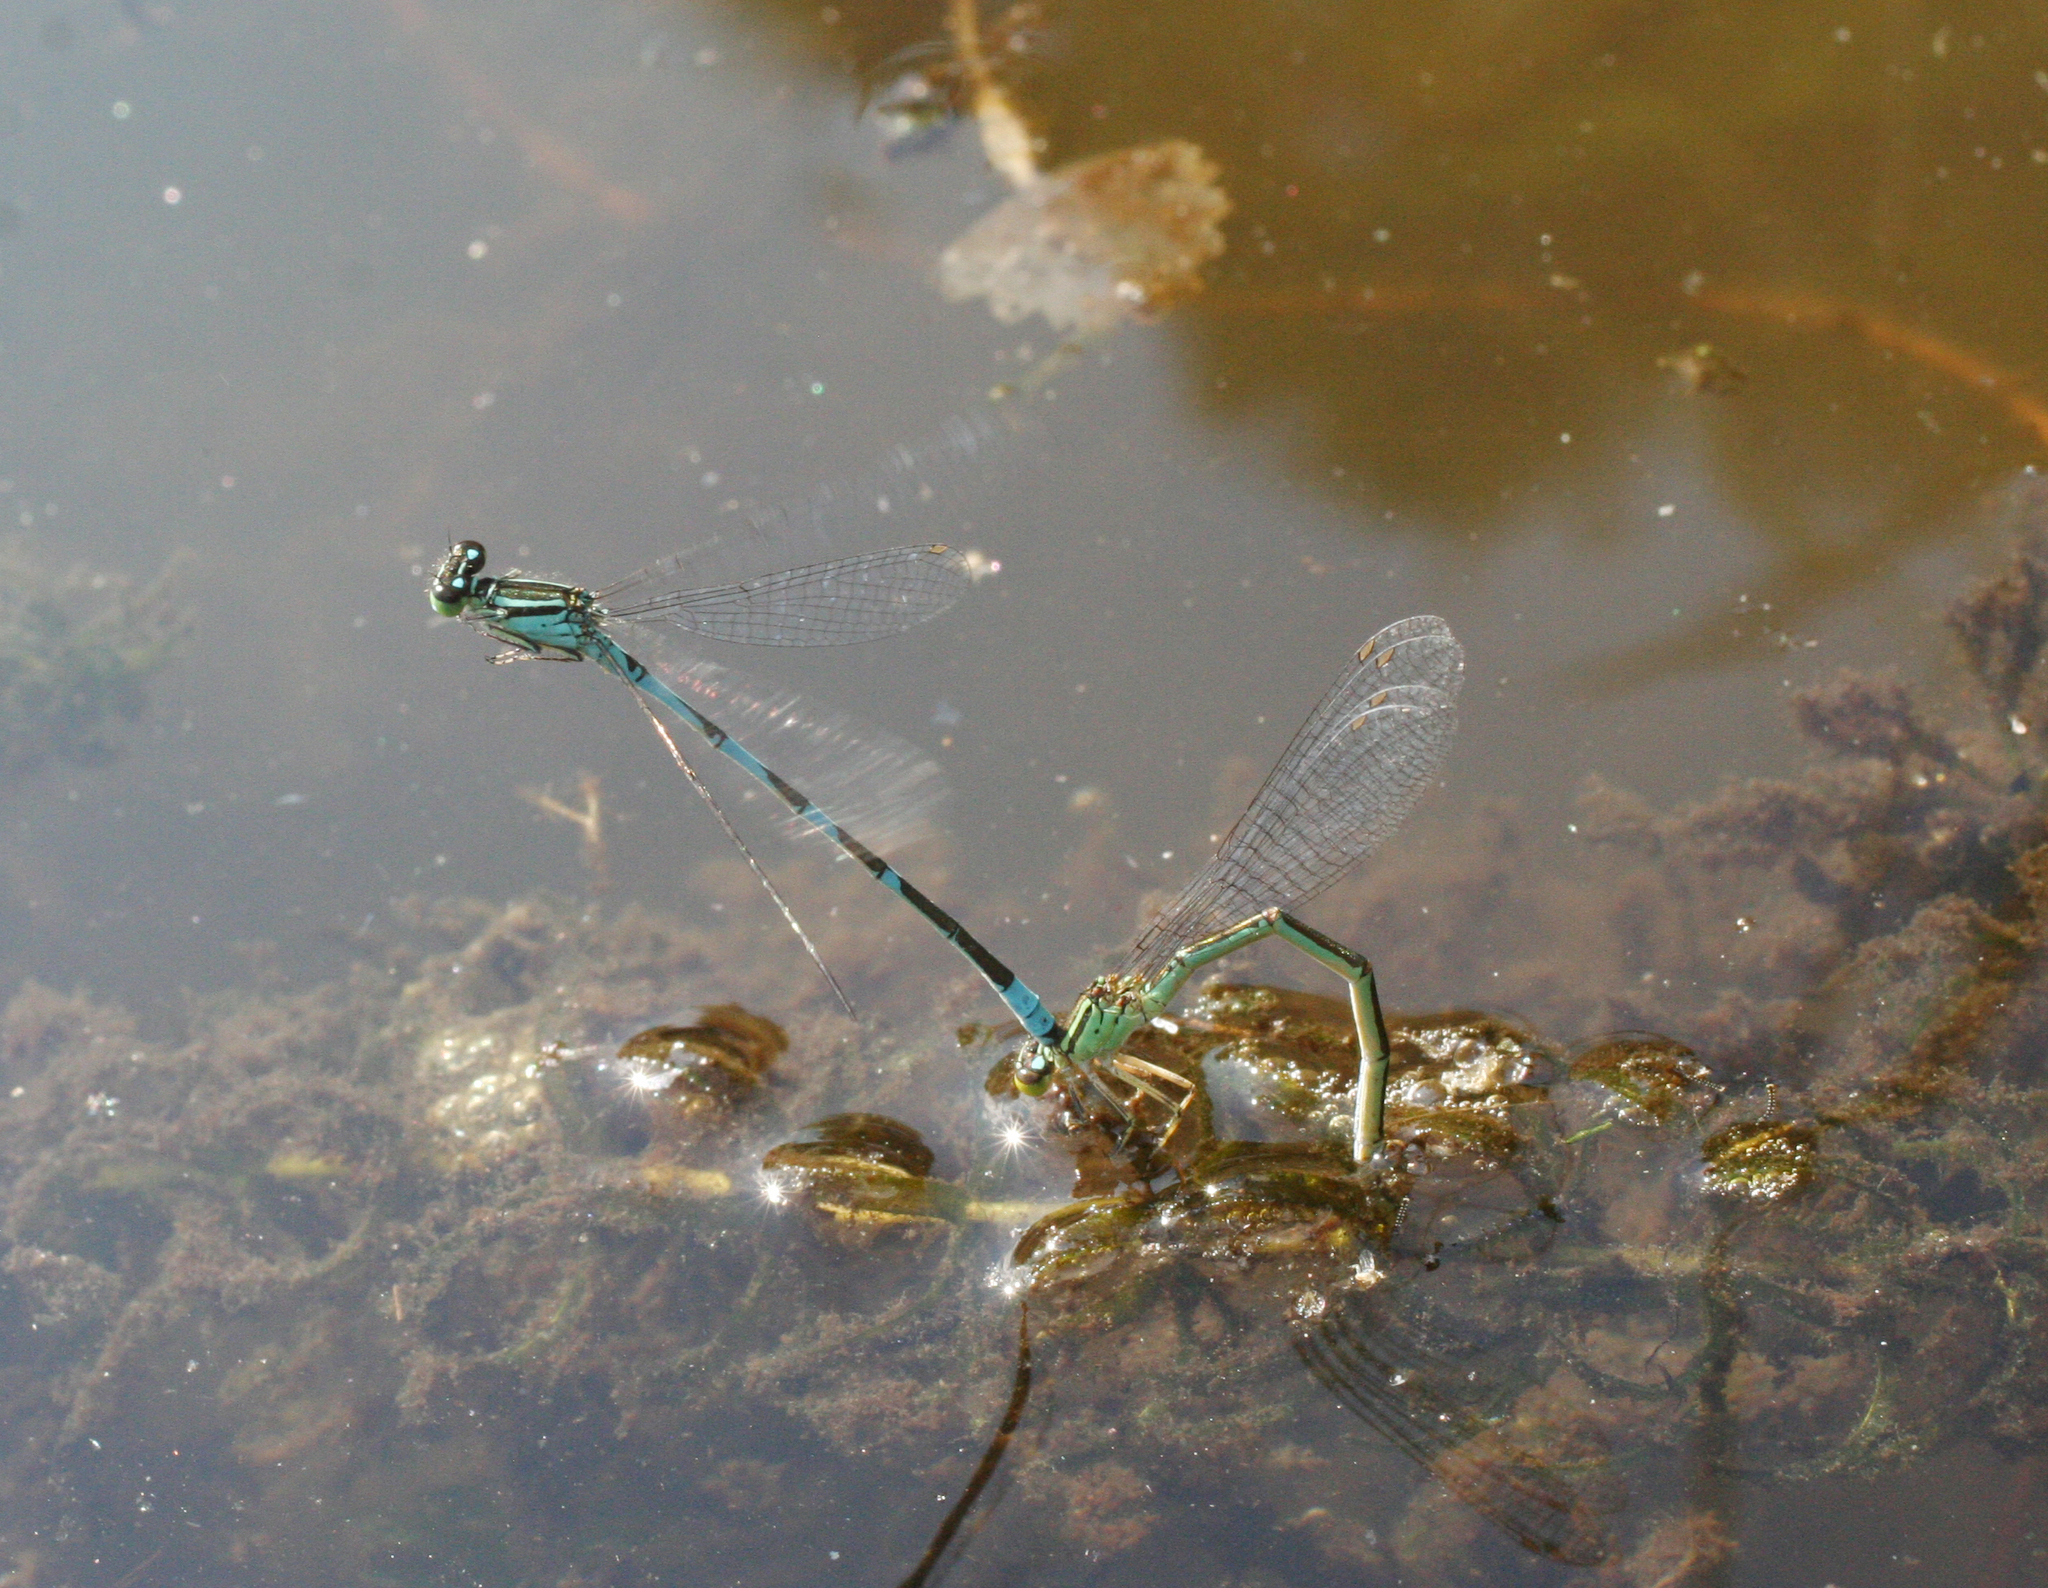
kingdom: Animalia
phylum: Arthropoda
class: Insecta
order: Odonata
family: Coenagrionidae
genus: Coenagrion
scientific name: Coenagrion lanceolatum
